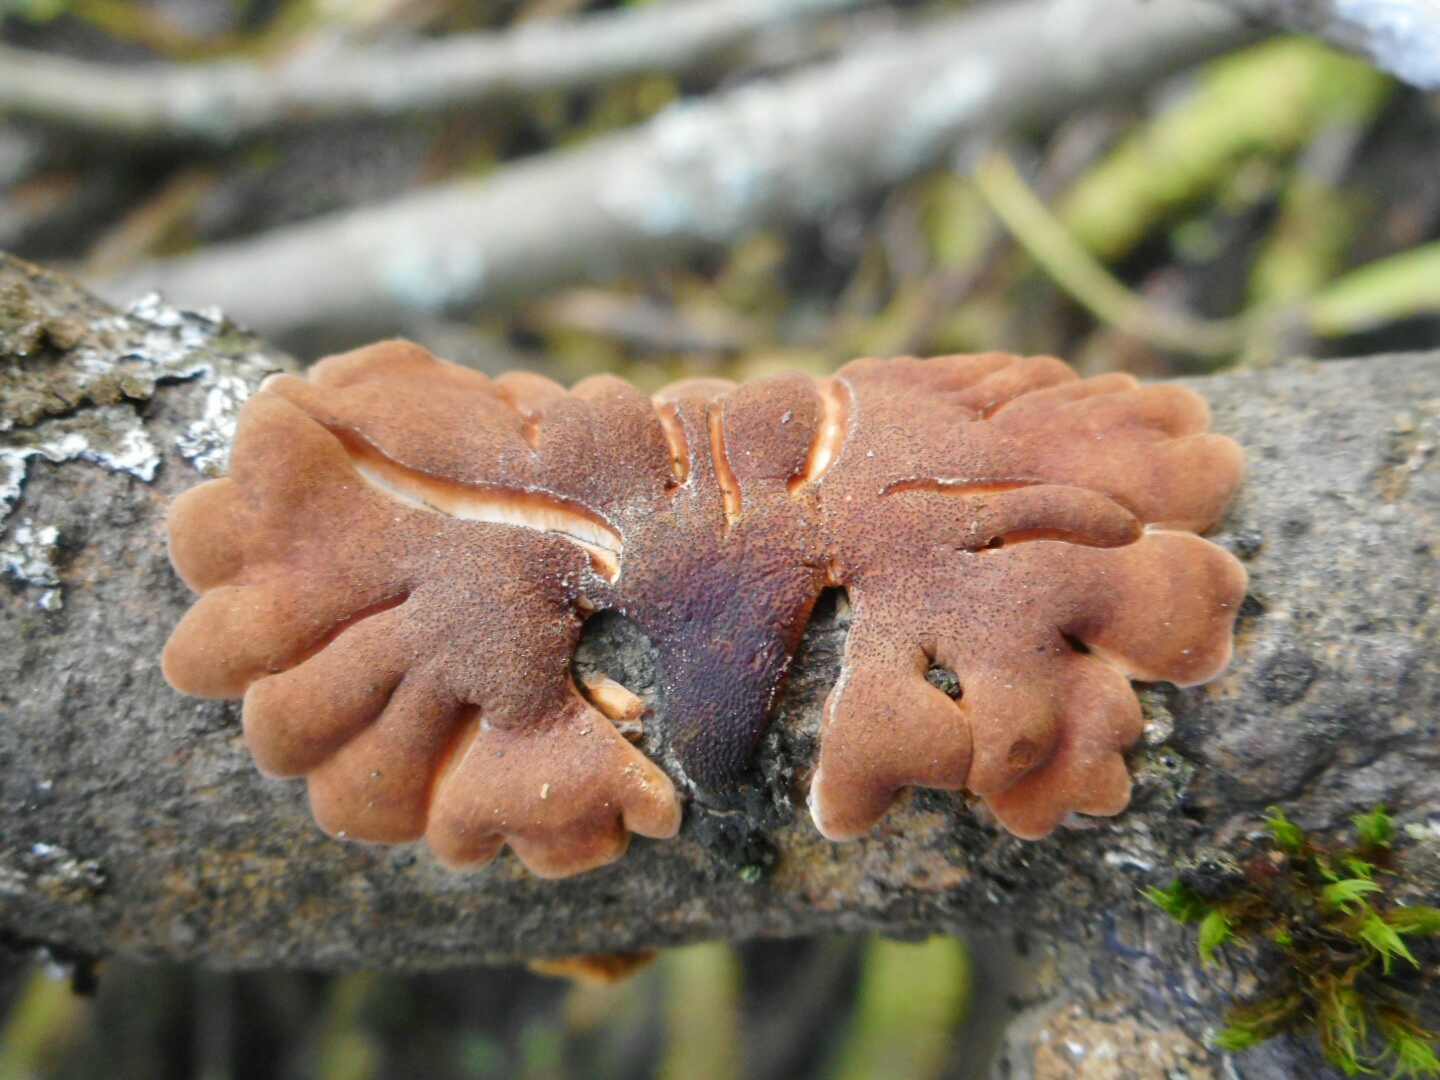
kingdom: Fungi
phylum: Ascomycota
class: Sordariomycetes
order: Hypocreales
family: Hypocreaceae
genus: Hypocreopsis
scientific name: Hypocreopsis lichenoides
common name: Willow gloves
